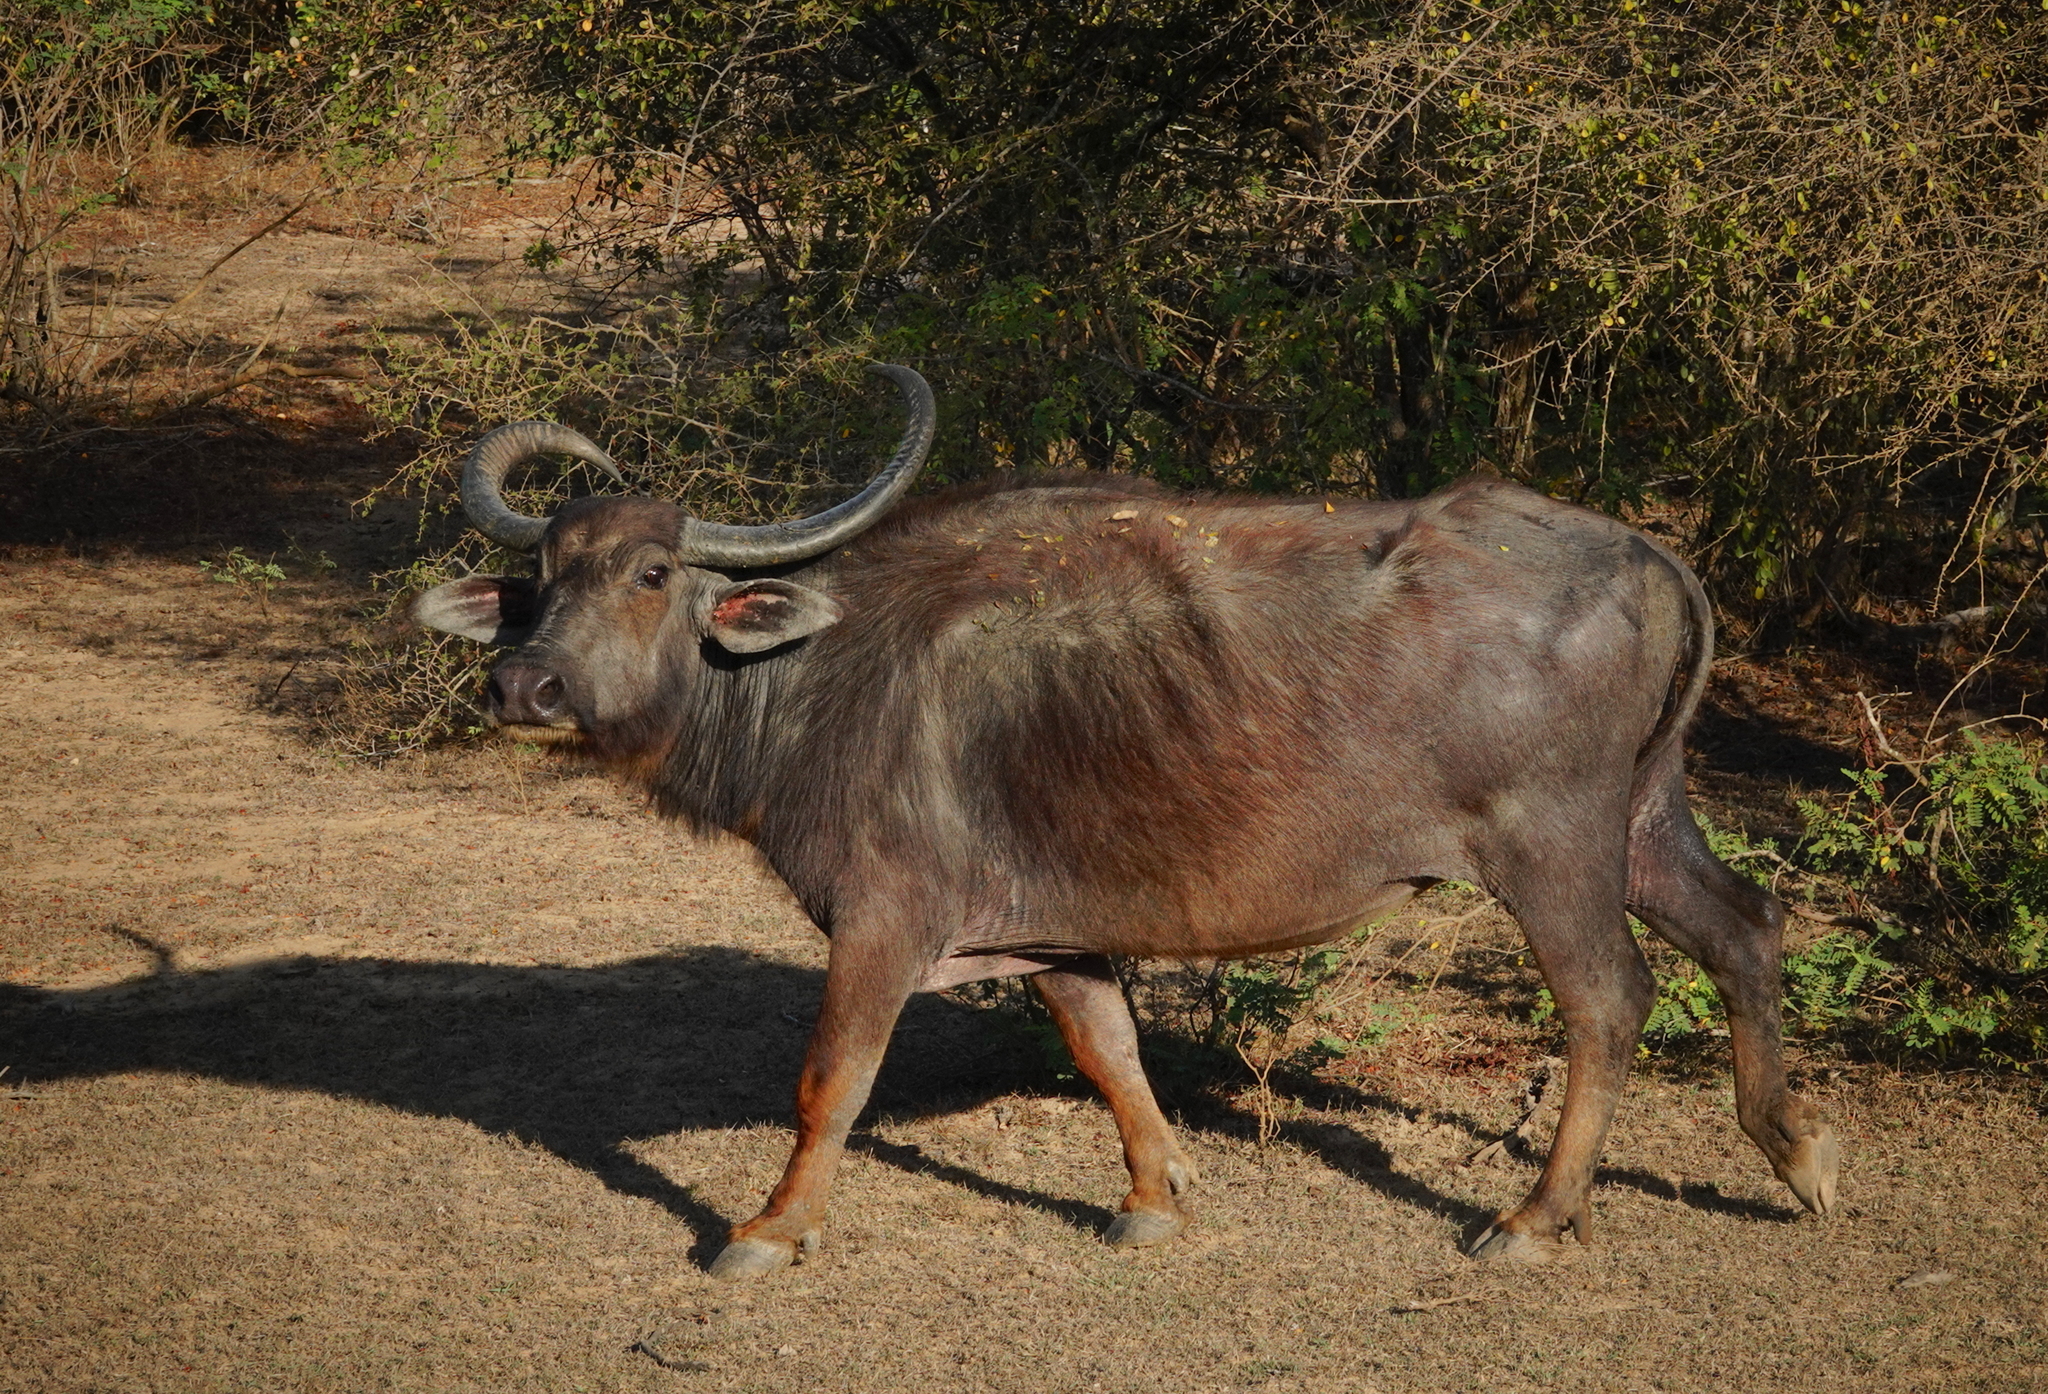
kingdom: Animalia
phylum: Chordata
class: Mammalia
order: Artiodactyla
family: Bovidae
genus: Bubalus
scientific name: Bubalus bubalis
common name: Water buffalo
